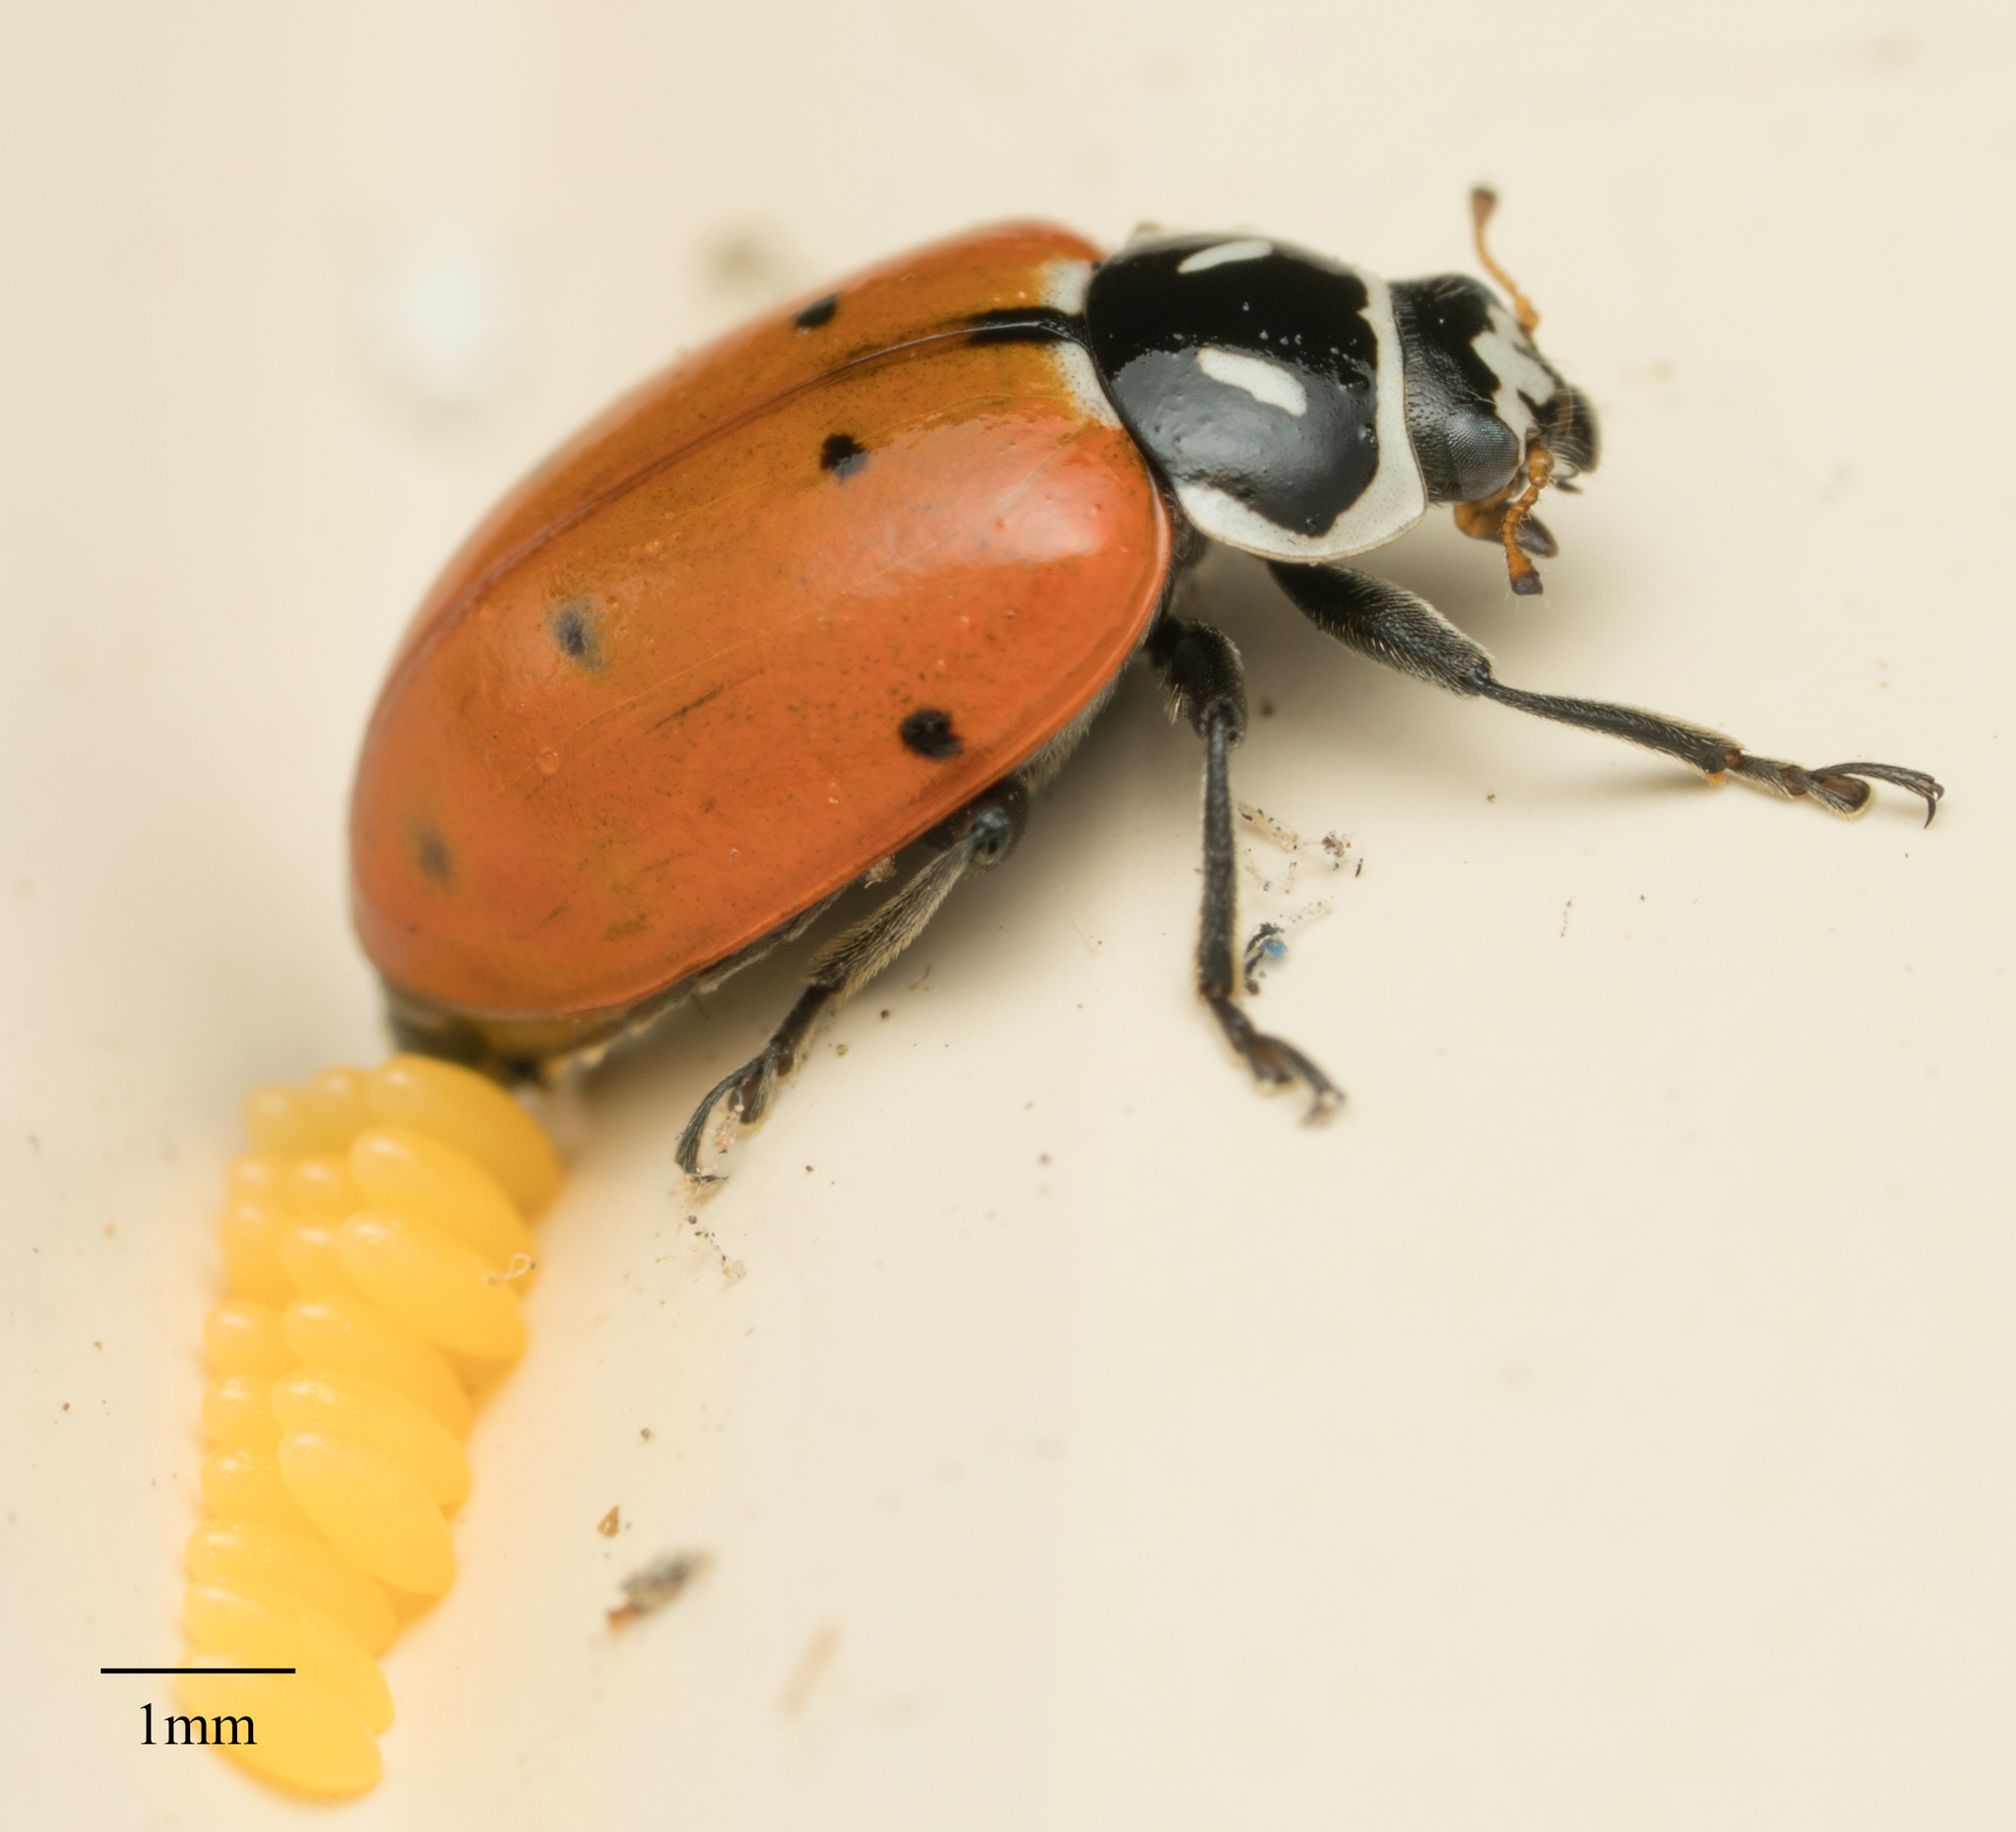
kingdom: Animalia
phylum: Arthropoda
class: Insecta
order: Coleoptera
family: Coccinellidae
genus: Hippodamia
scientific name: Hippodamia convergens
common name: Convergent lady beetle
